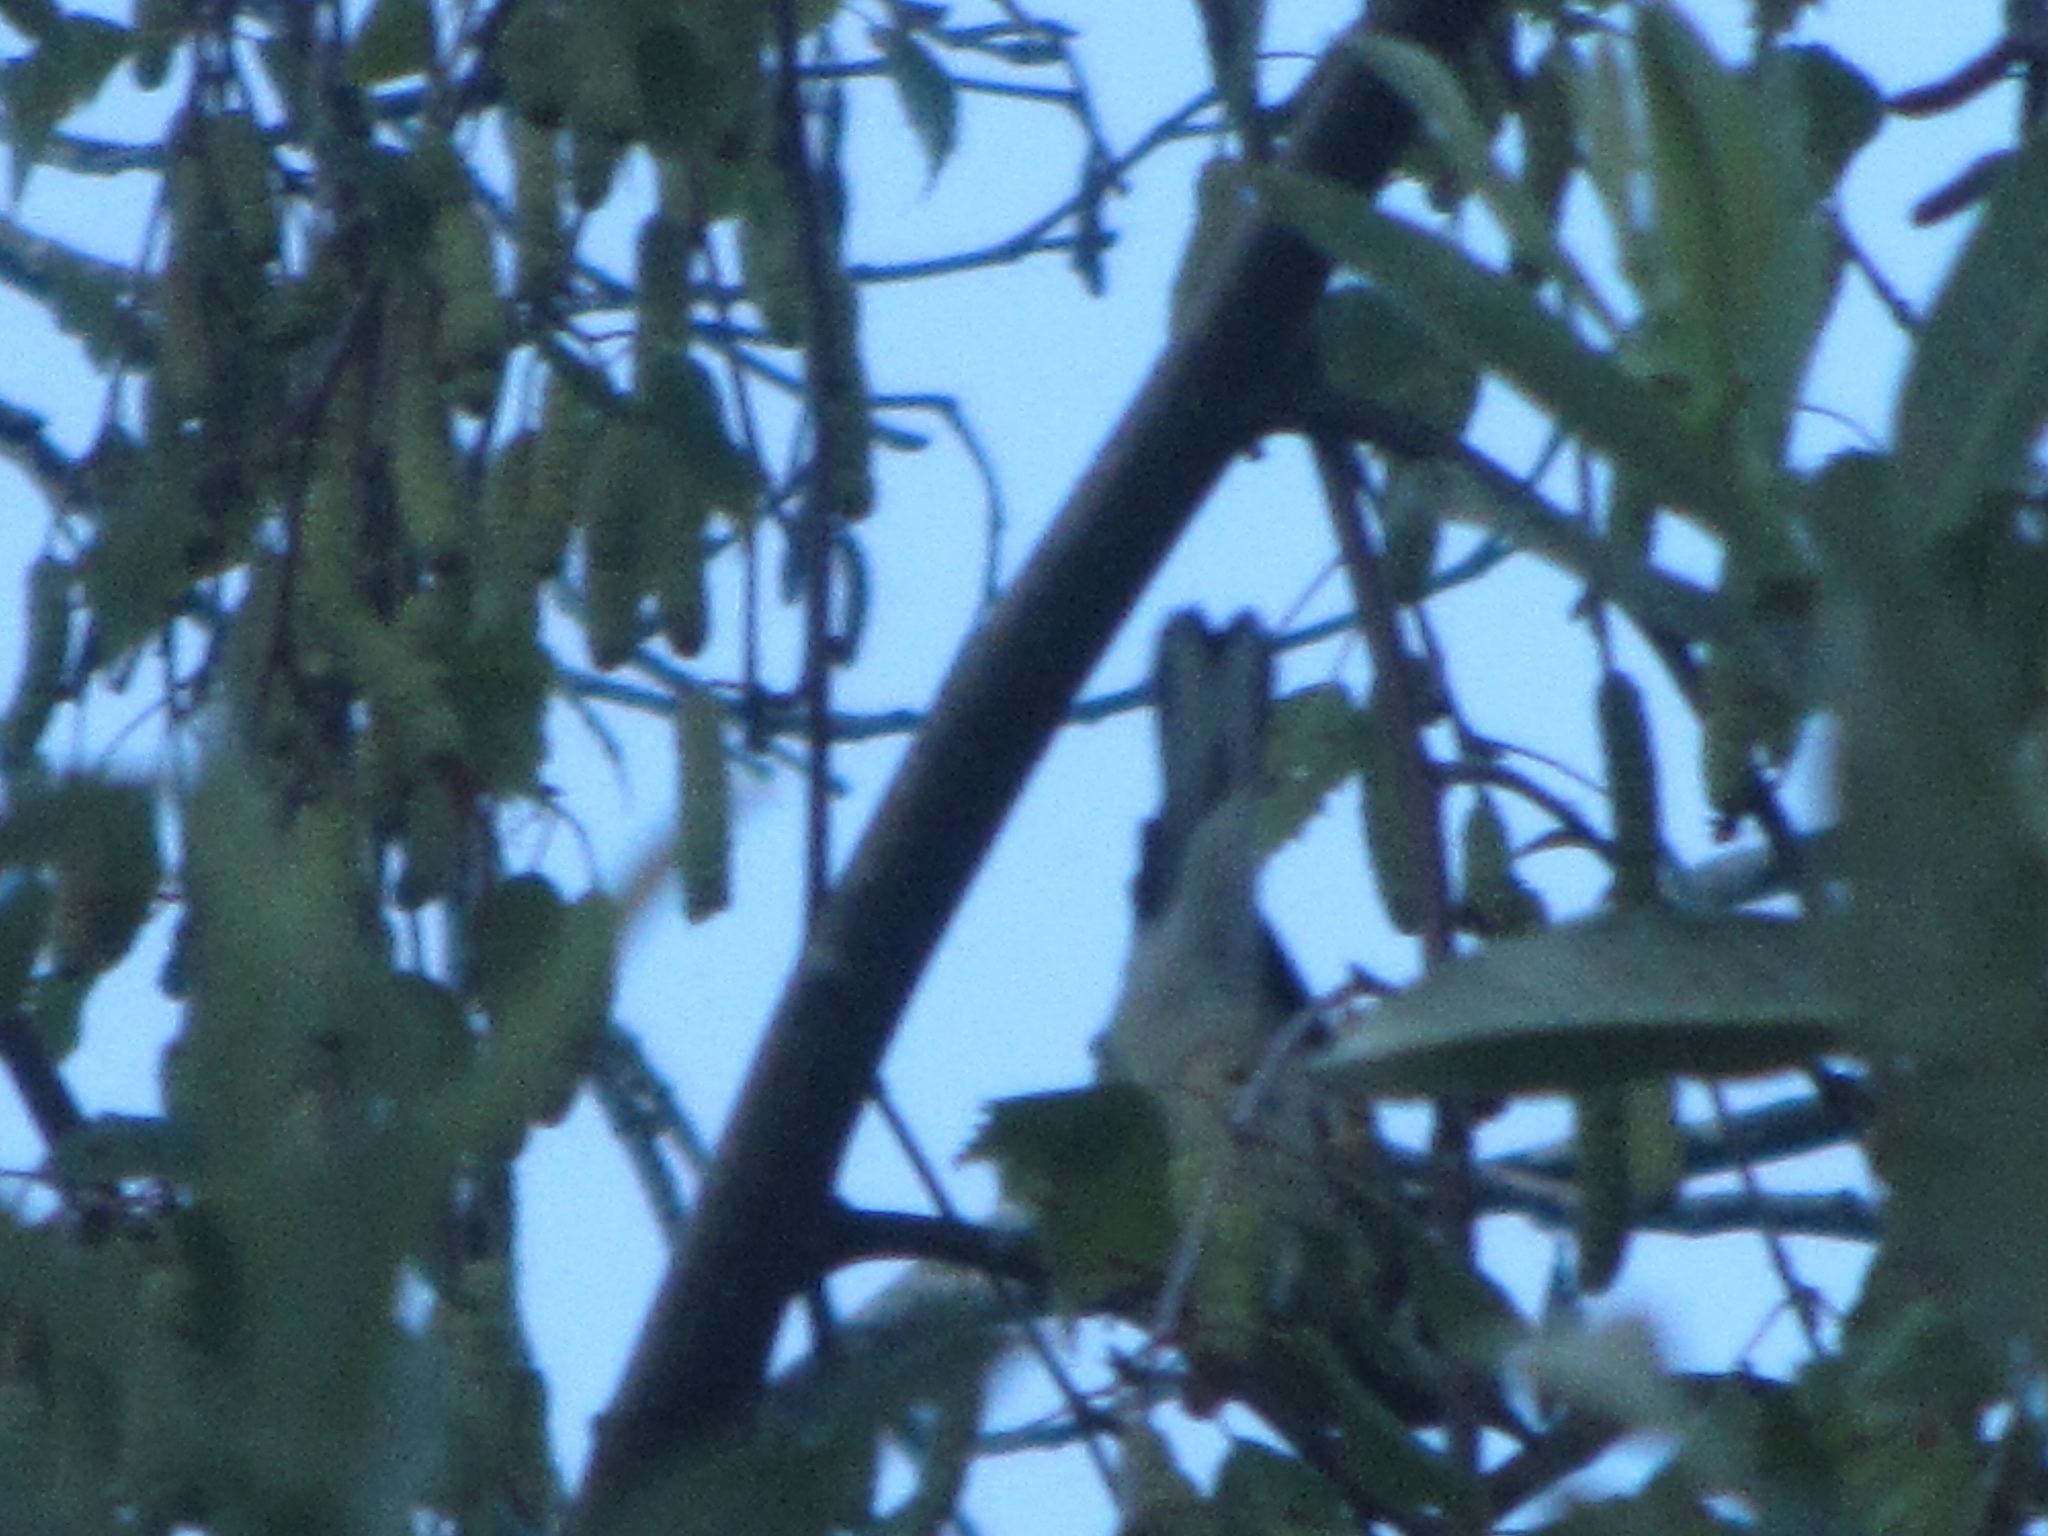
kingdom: Animalia
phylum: Chordata
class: Aves
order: Passeriformes
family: Parulidae
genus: Setophaga
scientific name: Setophaga nigrescens
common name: Black-throated gray warbler
